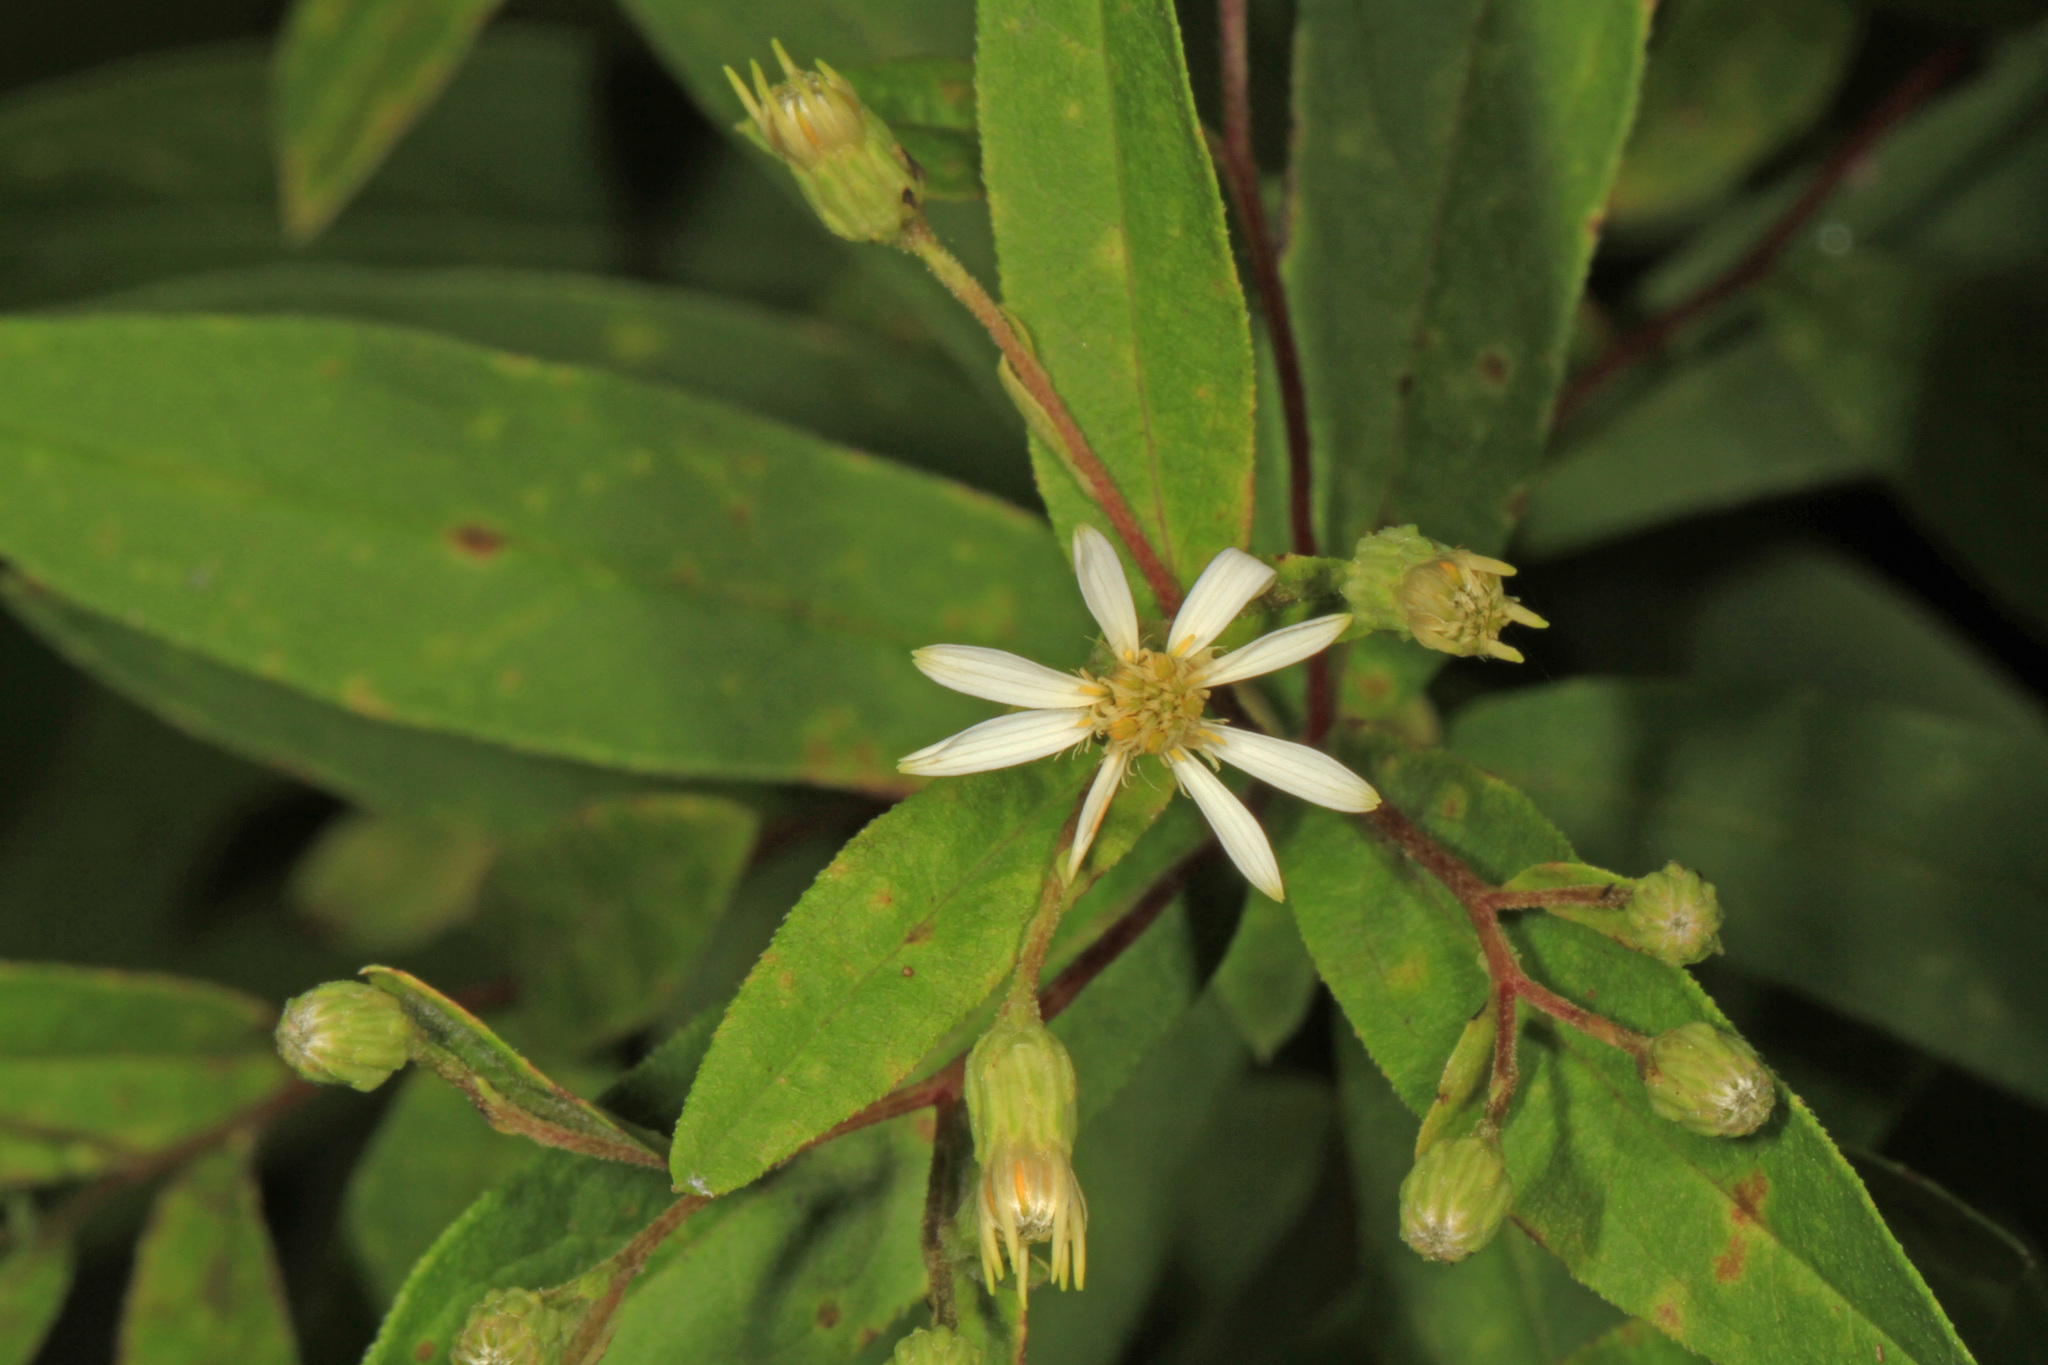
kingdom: Plantae
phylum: Tracheophyta
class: Magnoliopsida
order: Asterales
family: Asteraceae
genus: Doellingeria
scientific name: Doellingeria infirma
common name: Appalachian flat-top aster
